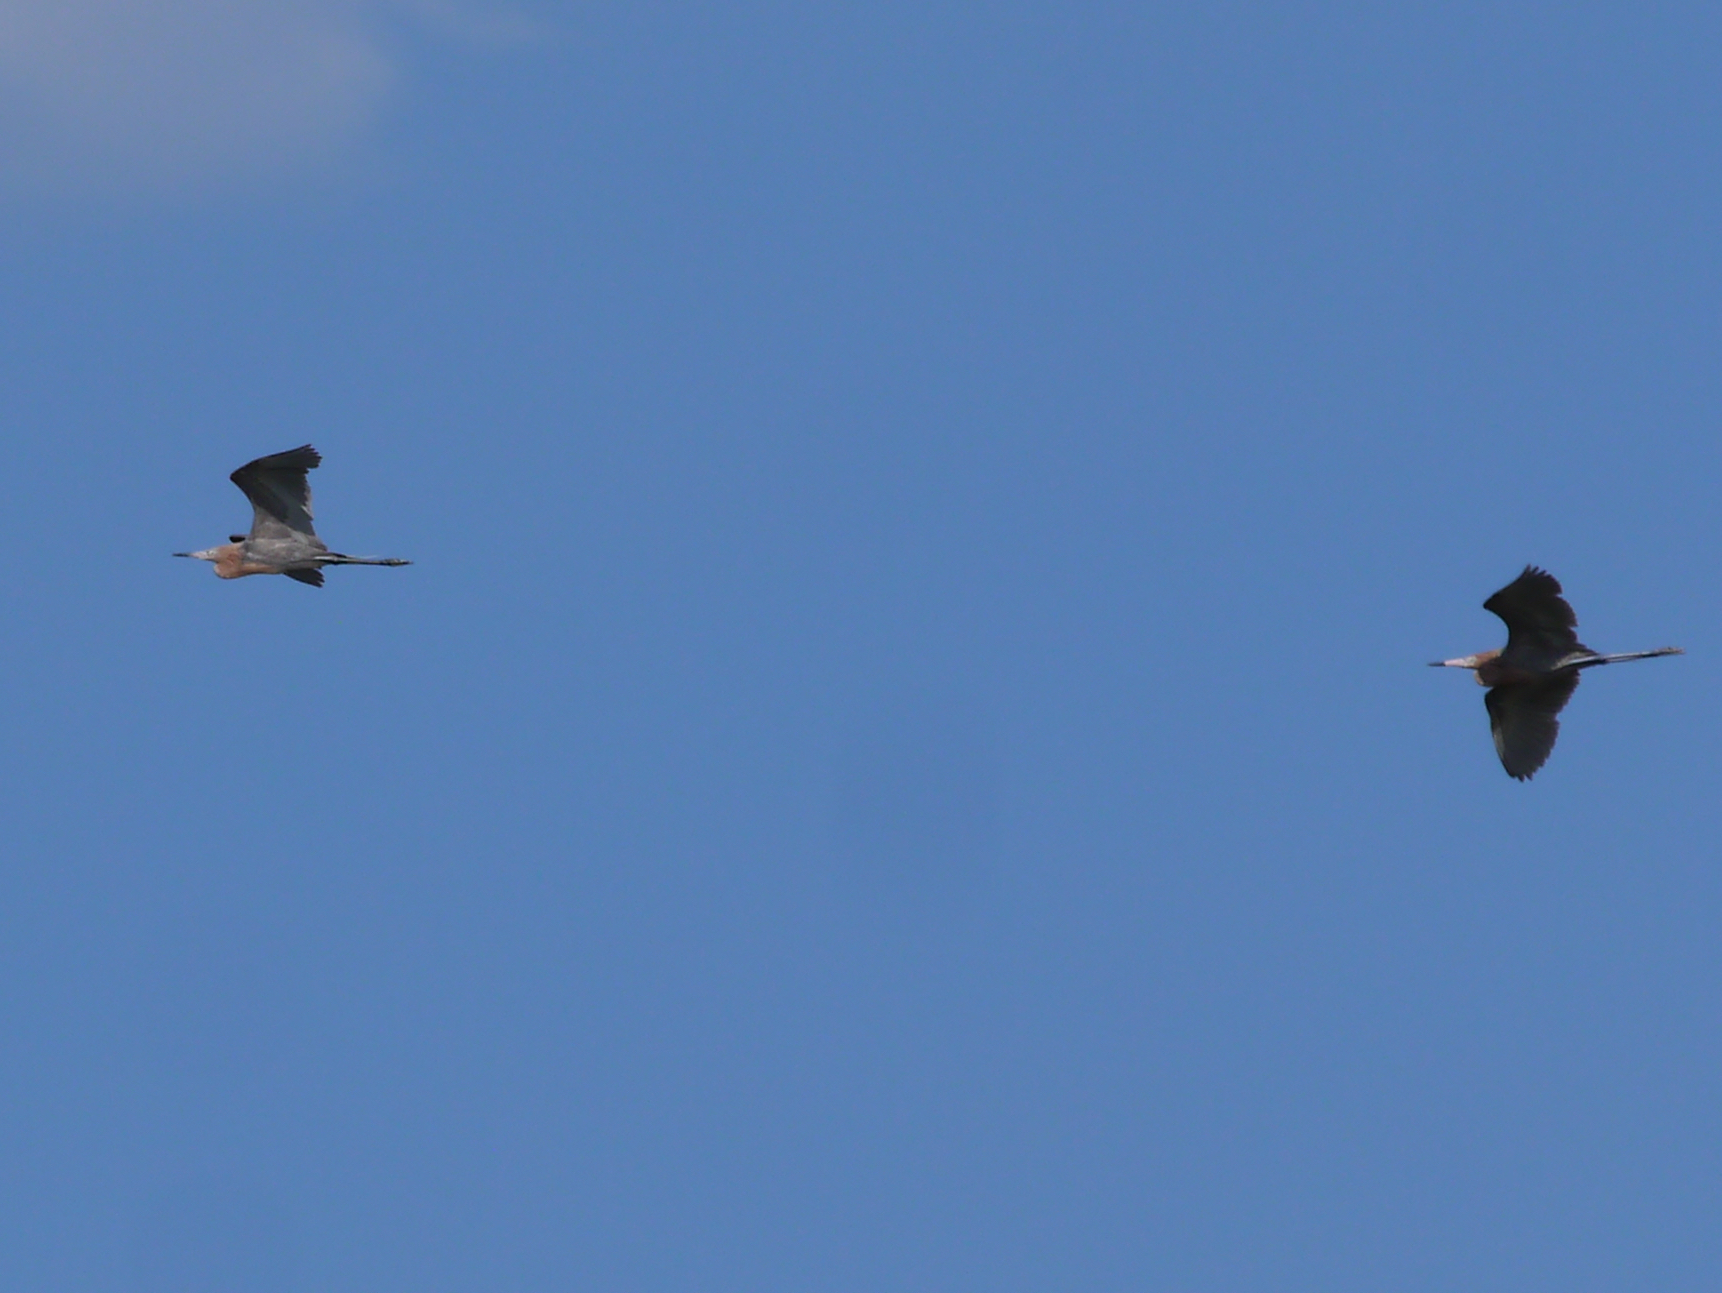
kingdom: Animalia
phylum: Chordata
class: Aves
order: Pelecaniformes
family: Ardeidae
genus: Egretta
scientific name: Egretta rufescens
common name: Reddish egret
